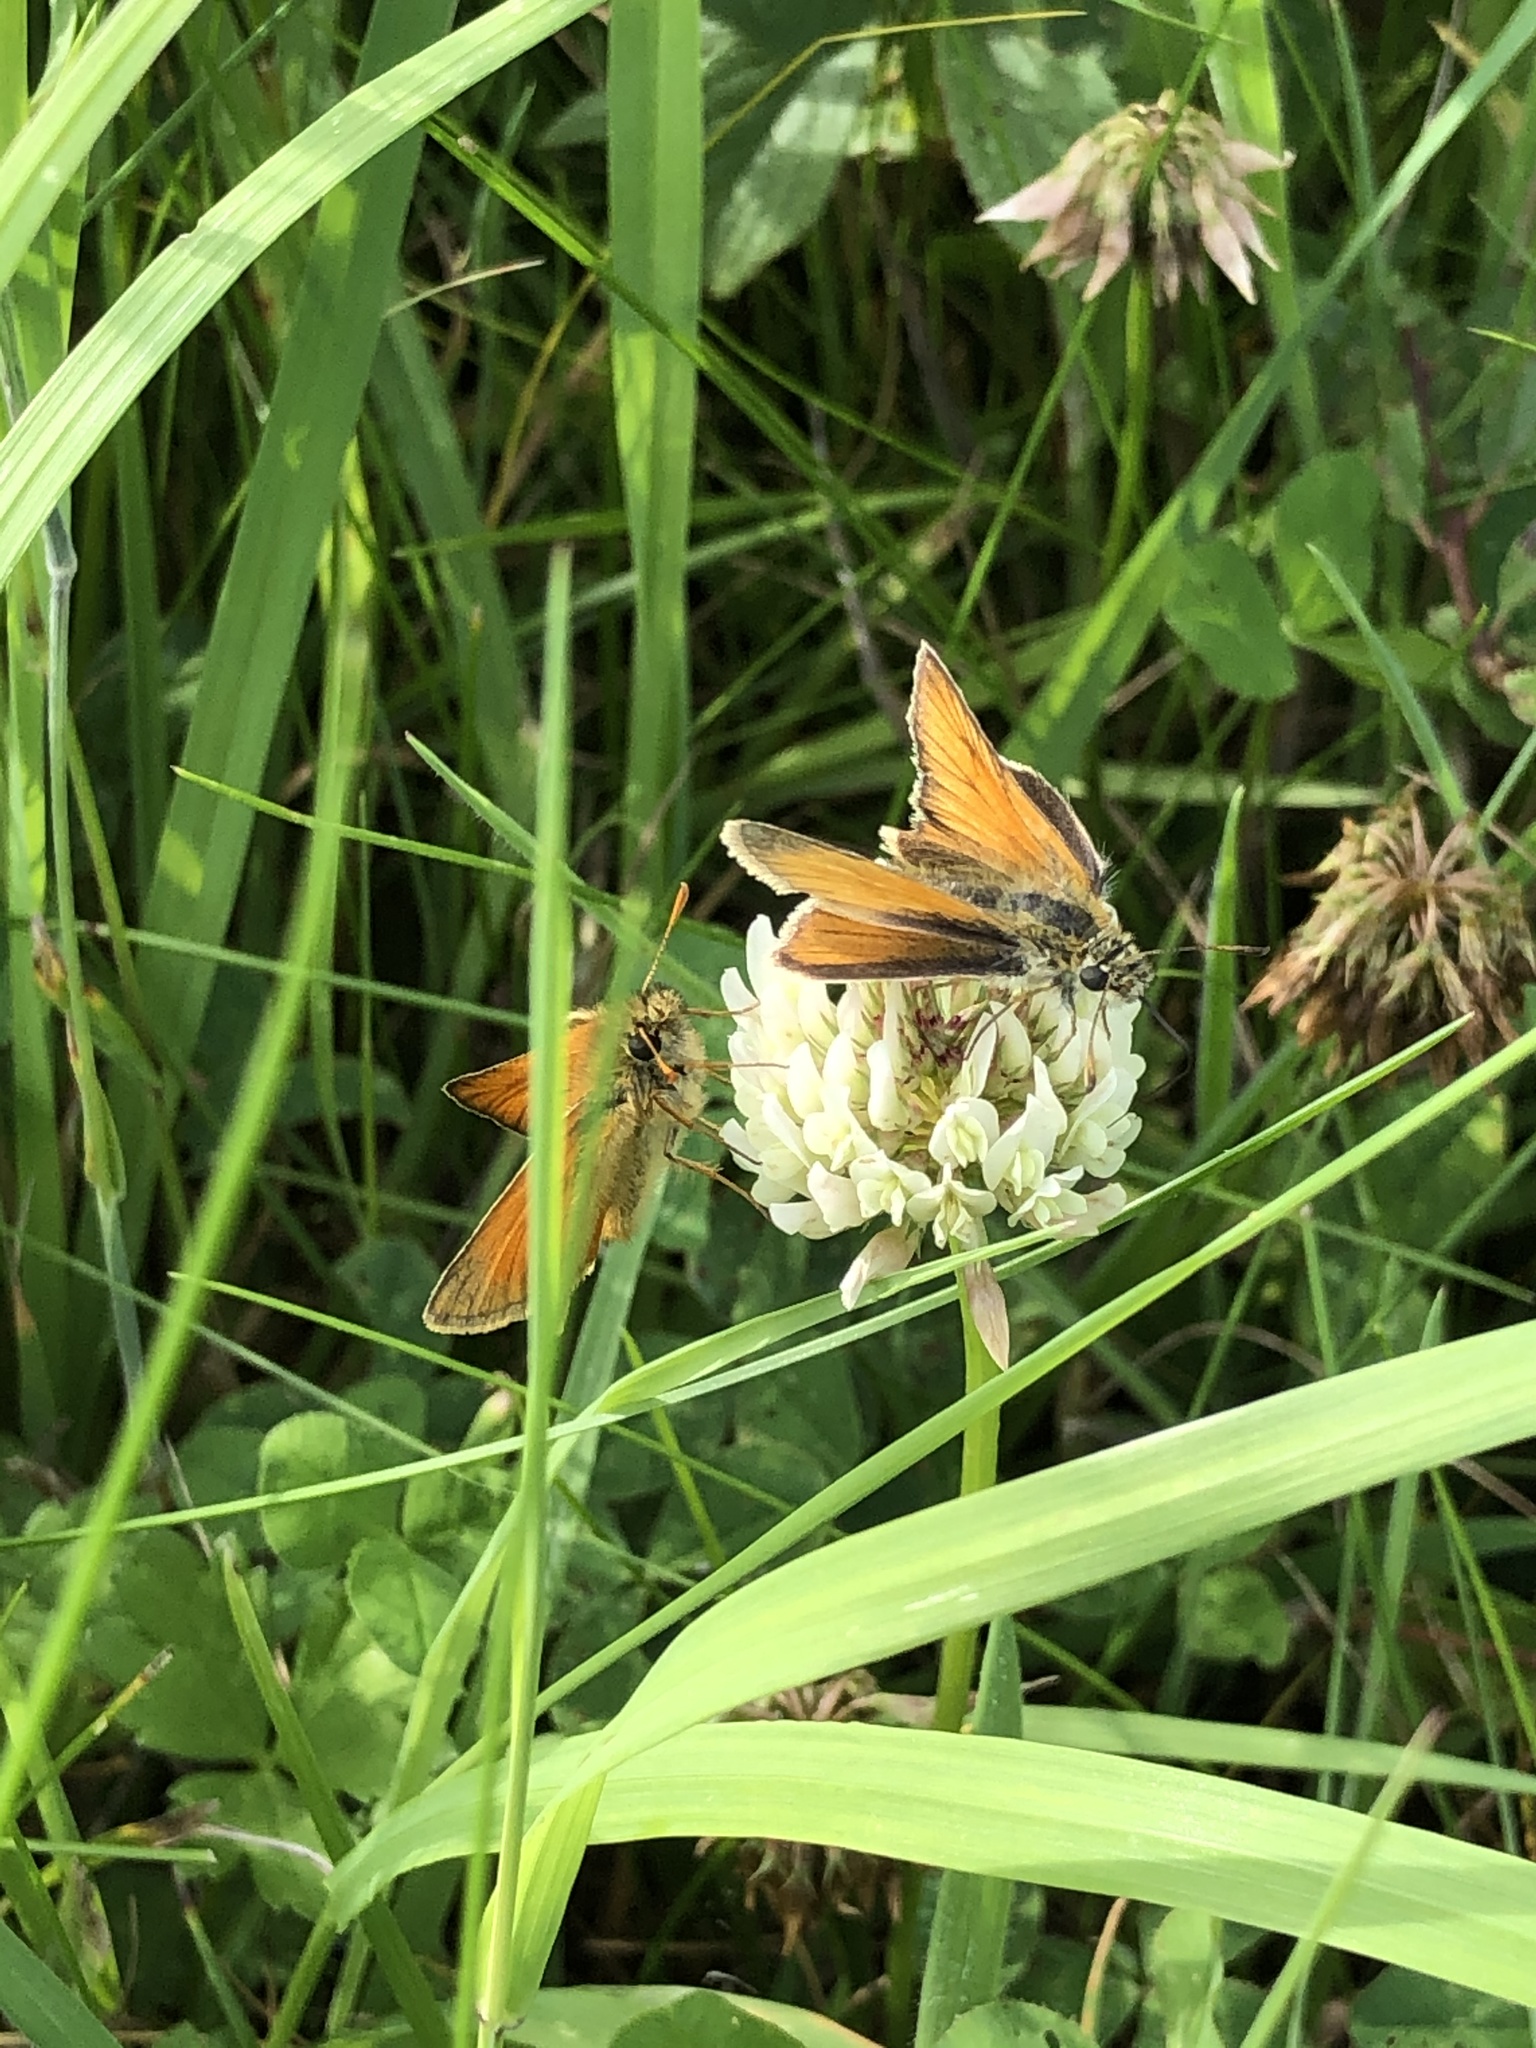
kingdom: Animalia
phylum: Arthropoda
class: Insecta
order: Lepidoptera
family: Hesperiidae
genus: Thymelicus
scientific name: Thymelicus sylvestris
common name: Small skipper
